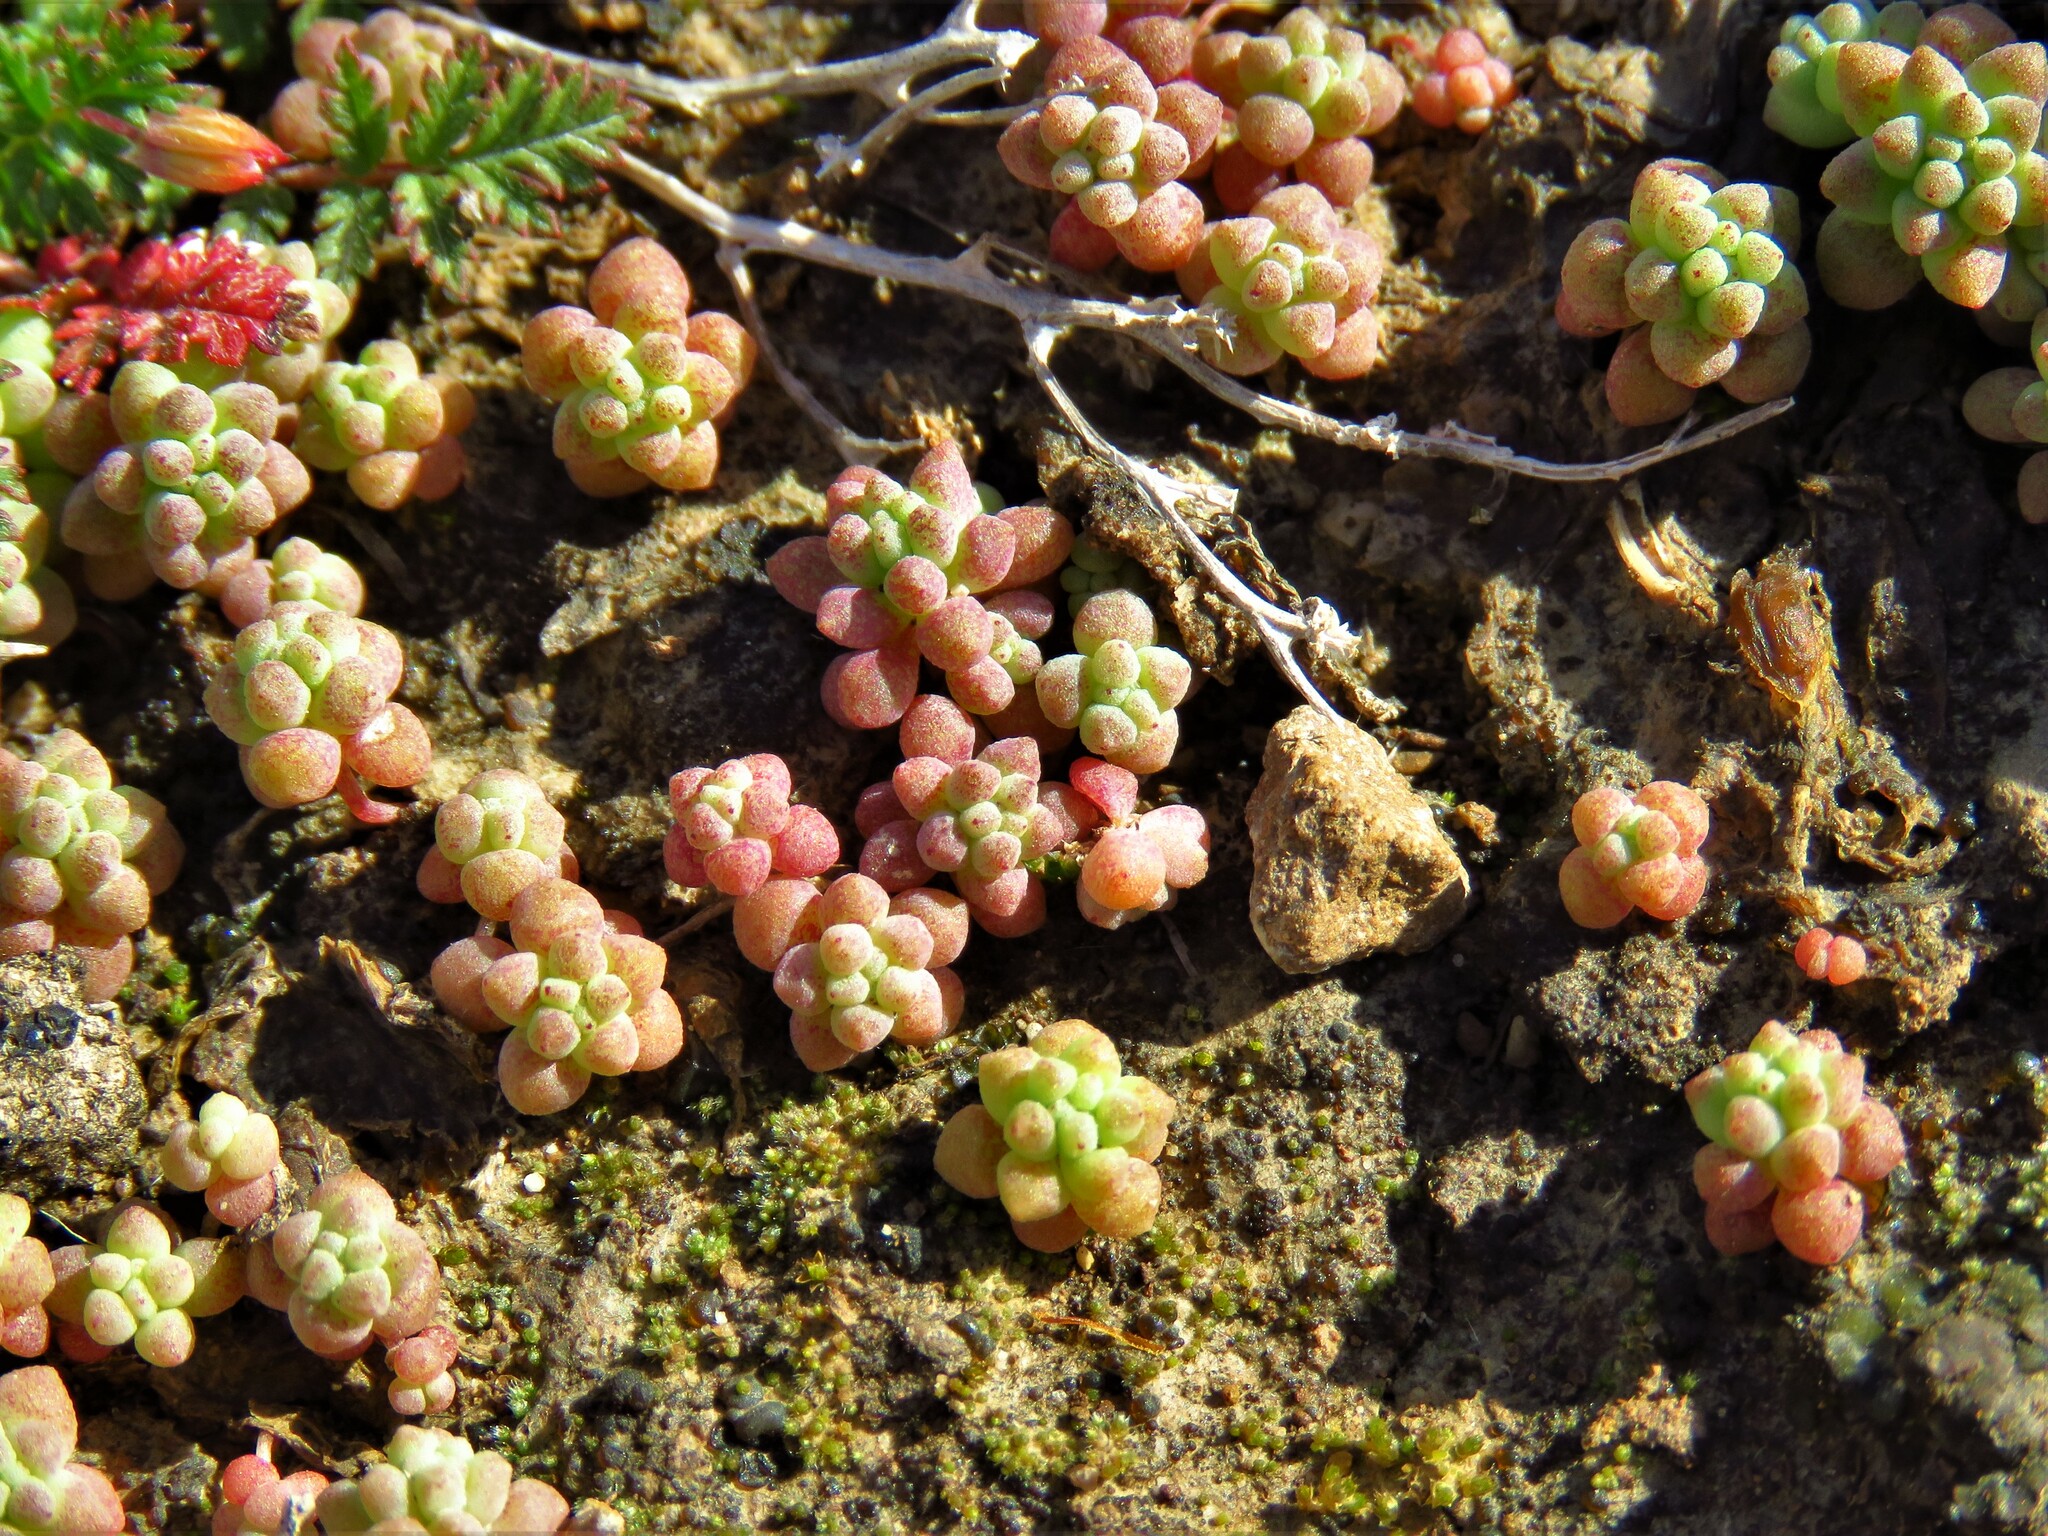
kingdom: Plantae
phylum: Tracheophyta
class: Magnoliopsida
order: Saxifragales
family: Crassulaceae
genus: Sedum
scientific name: Sedum nuttallii
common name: Yellow stonecrop
